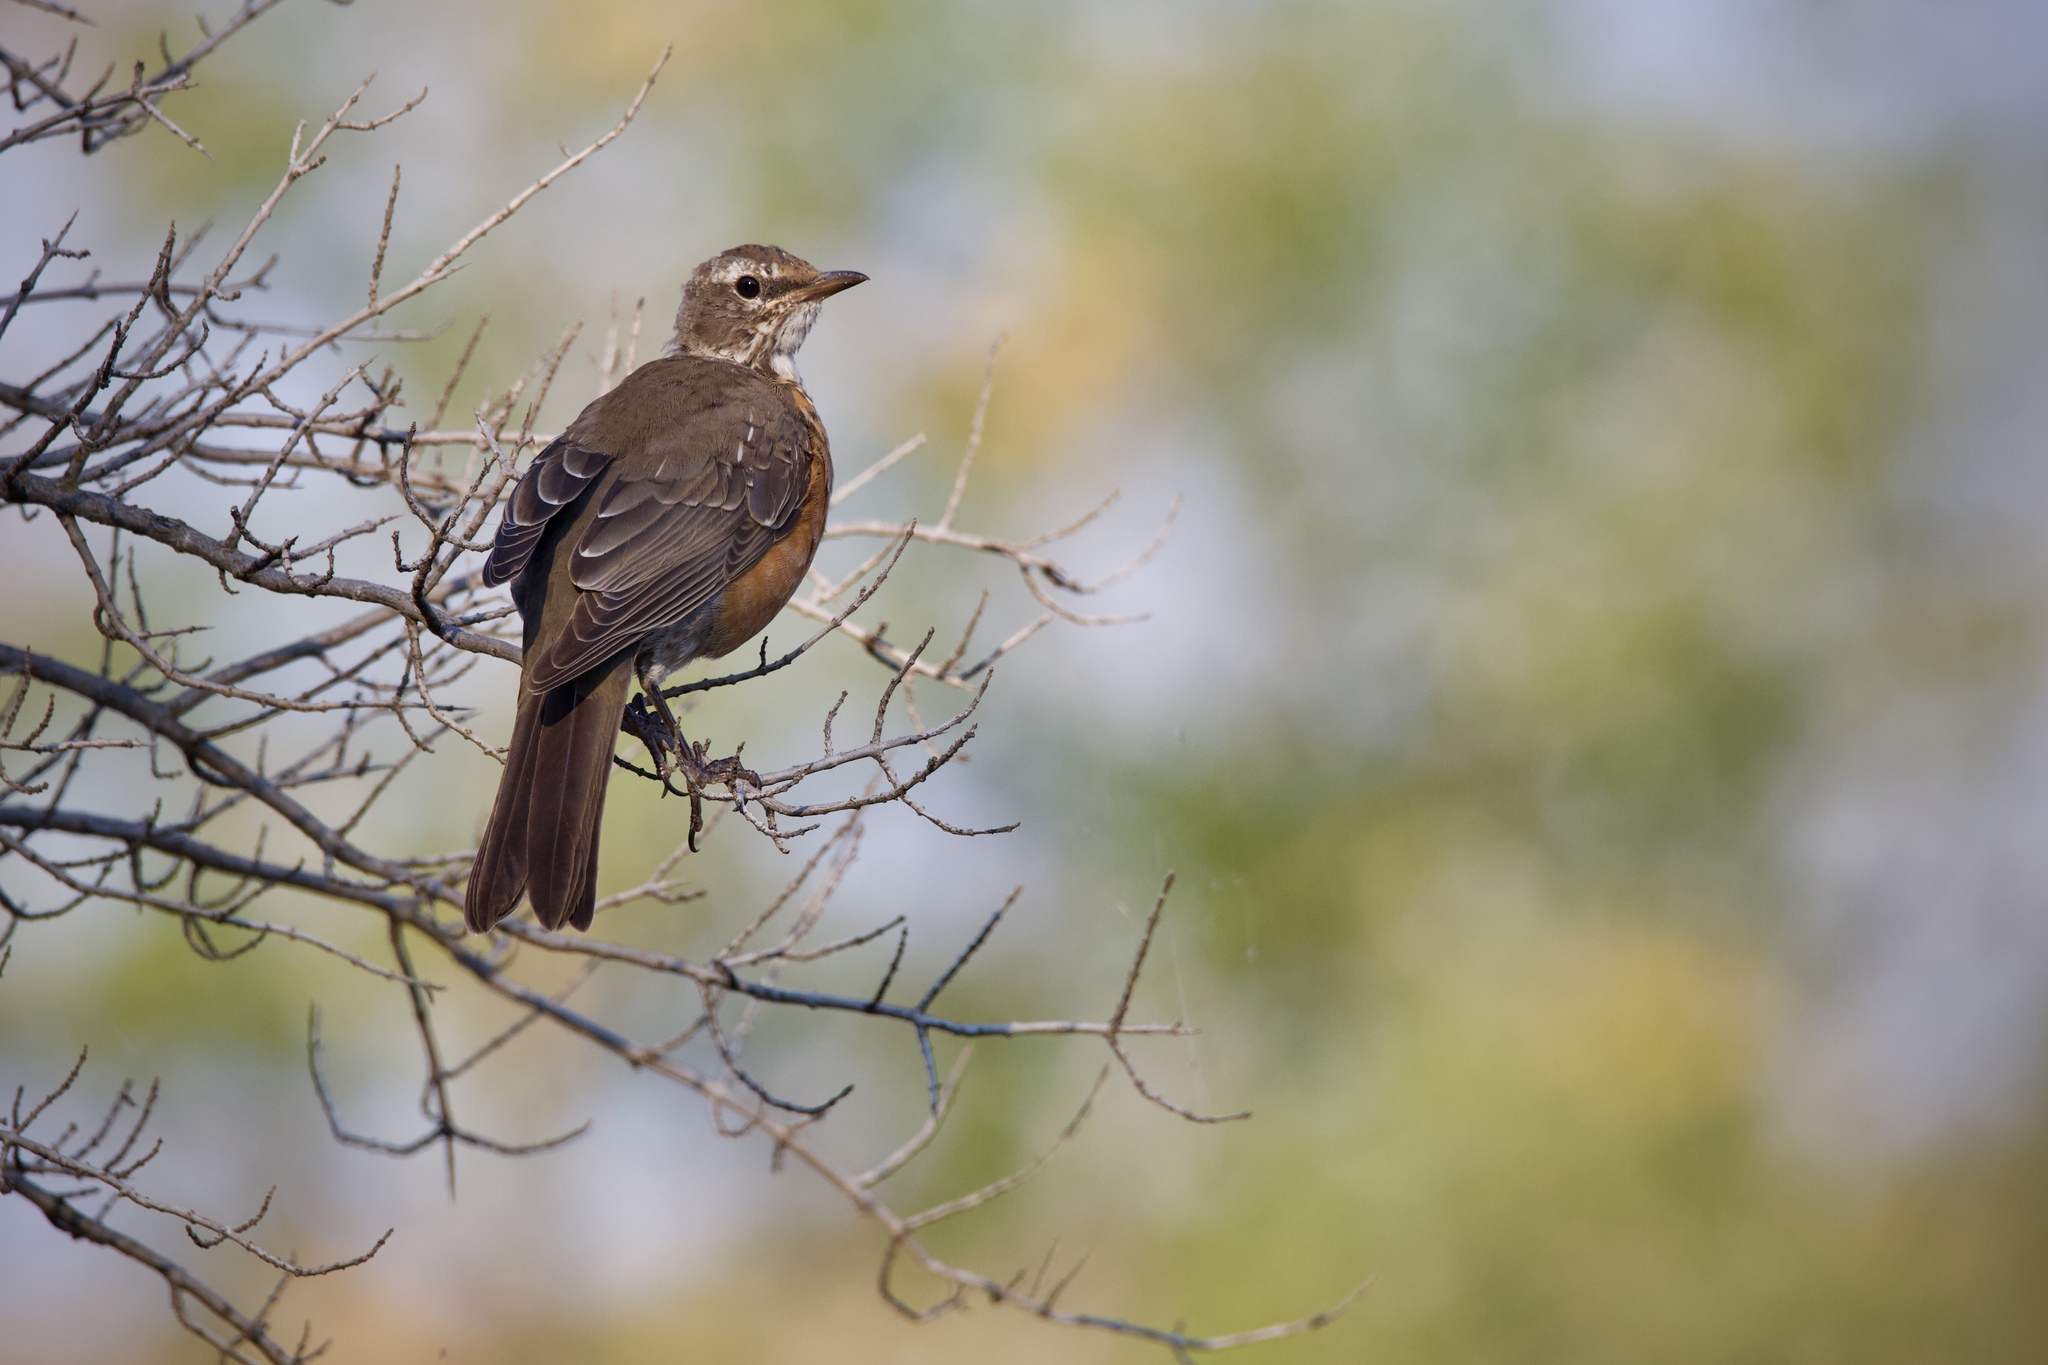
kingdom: Animalia
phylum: Chordata
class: Aves
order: Passeriformes
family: Turdidae
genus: Turdus
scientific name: Turdus migratorius
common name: American robin
